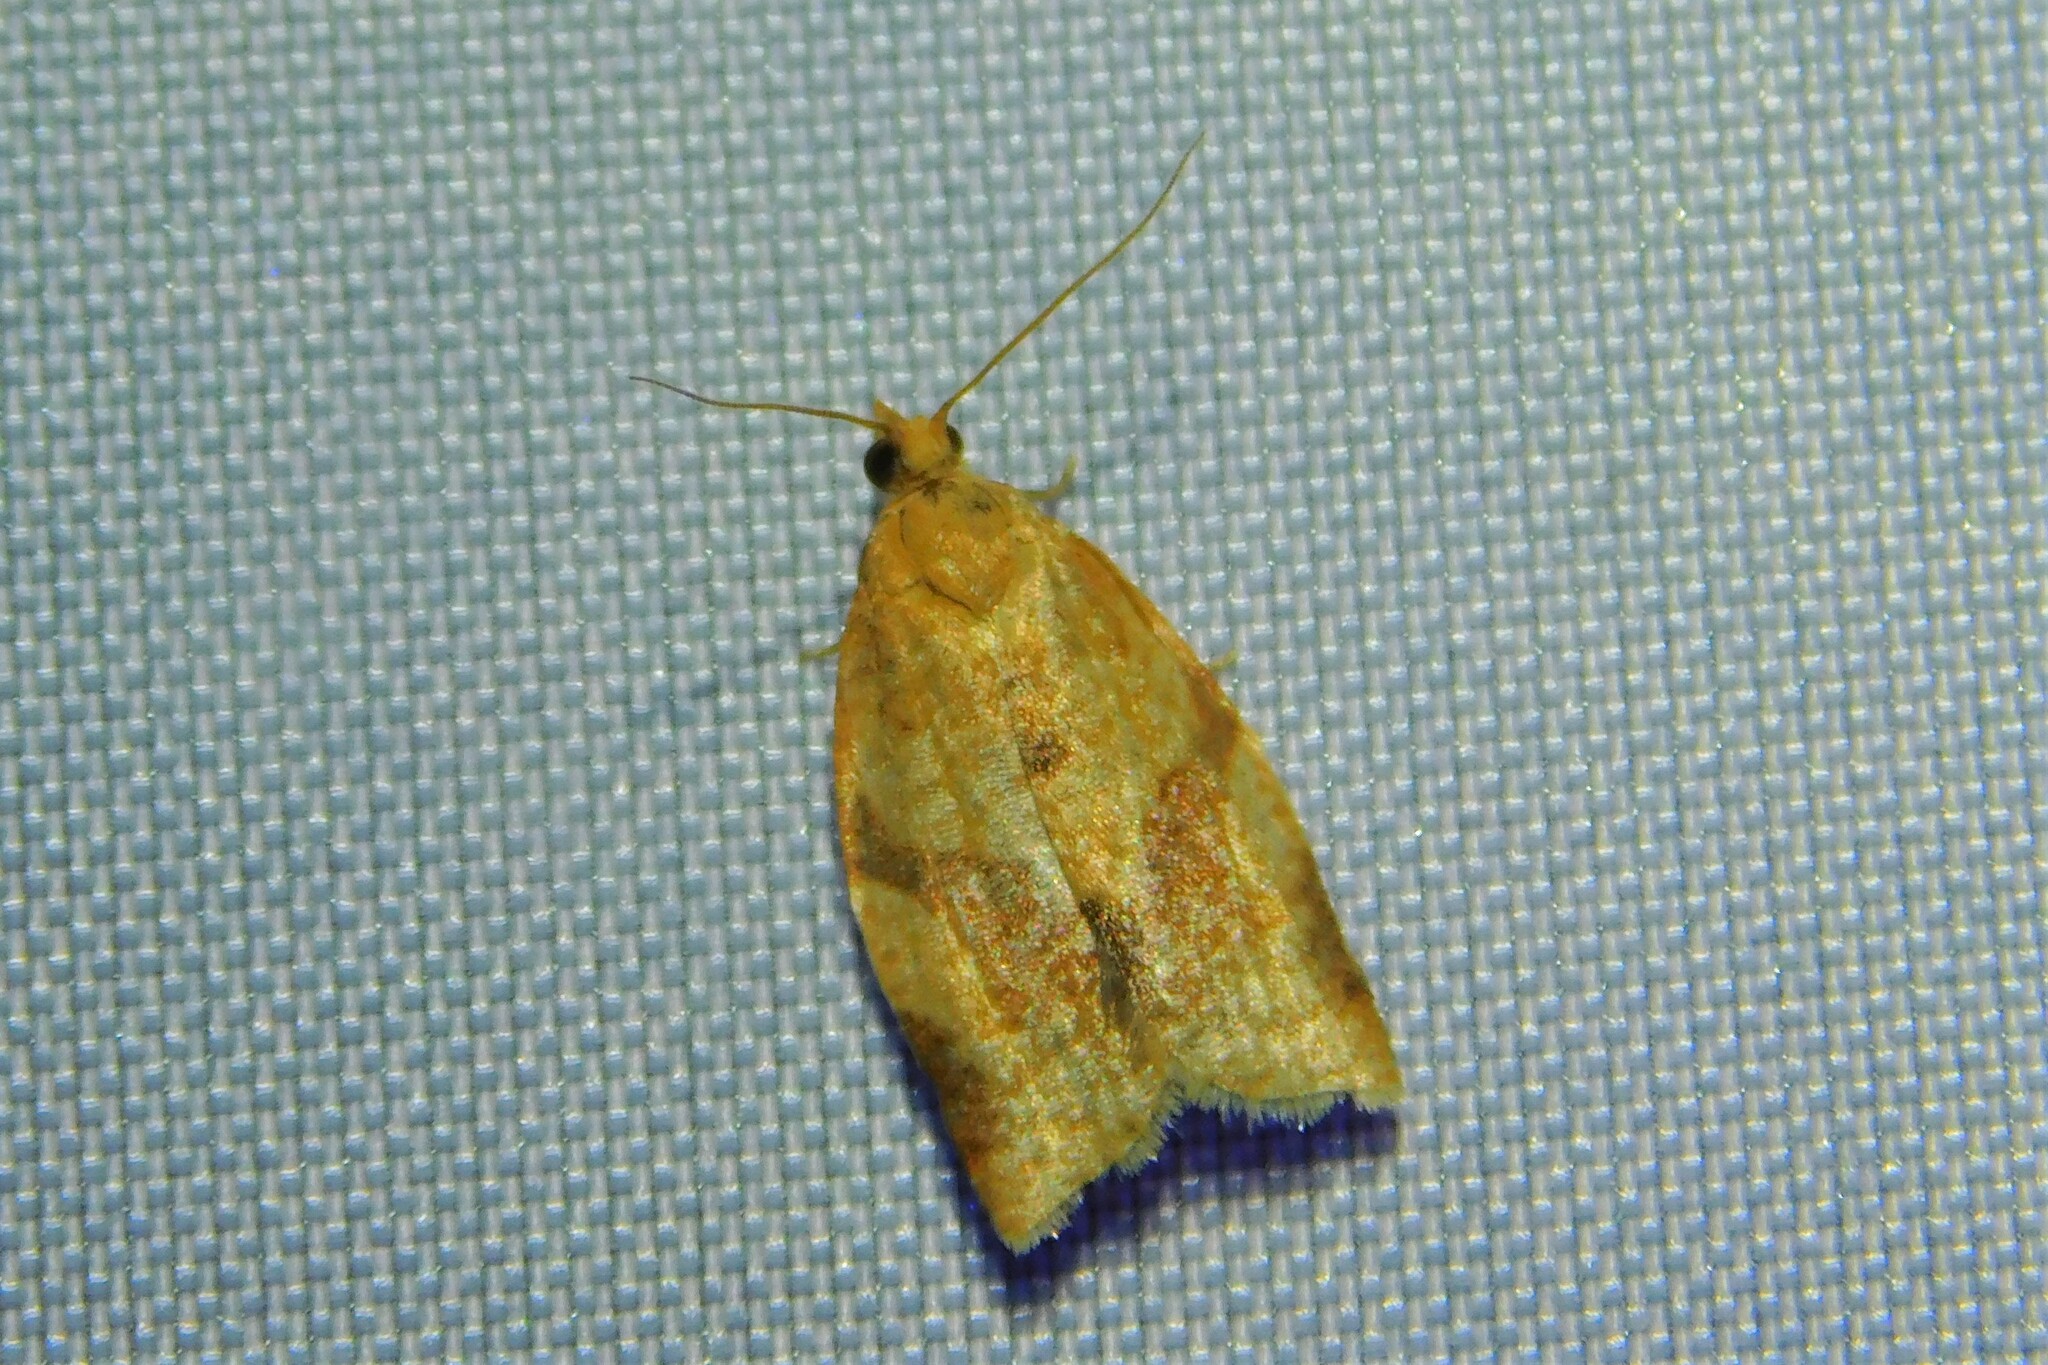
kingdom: Animalia
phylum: Arthropoda
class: Insecta
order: Lepidoptera
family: Tortricidae
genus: Clepsis
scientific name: Clepsis consimilana
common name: Privet tortrix
